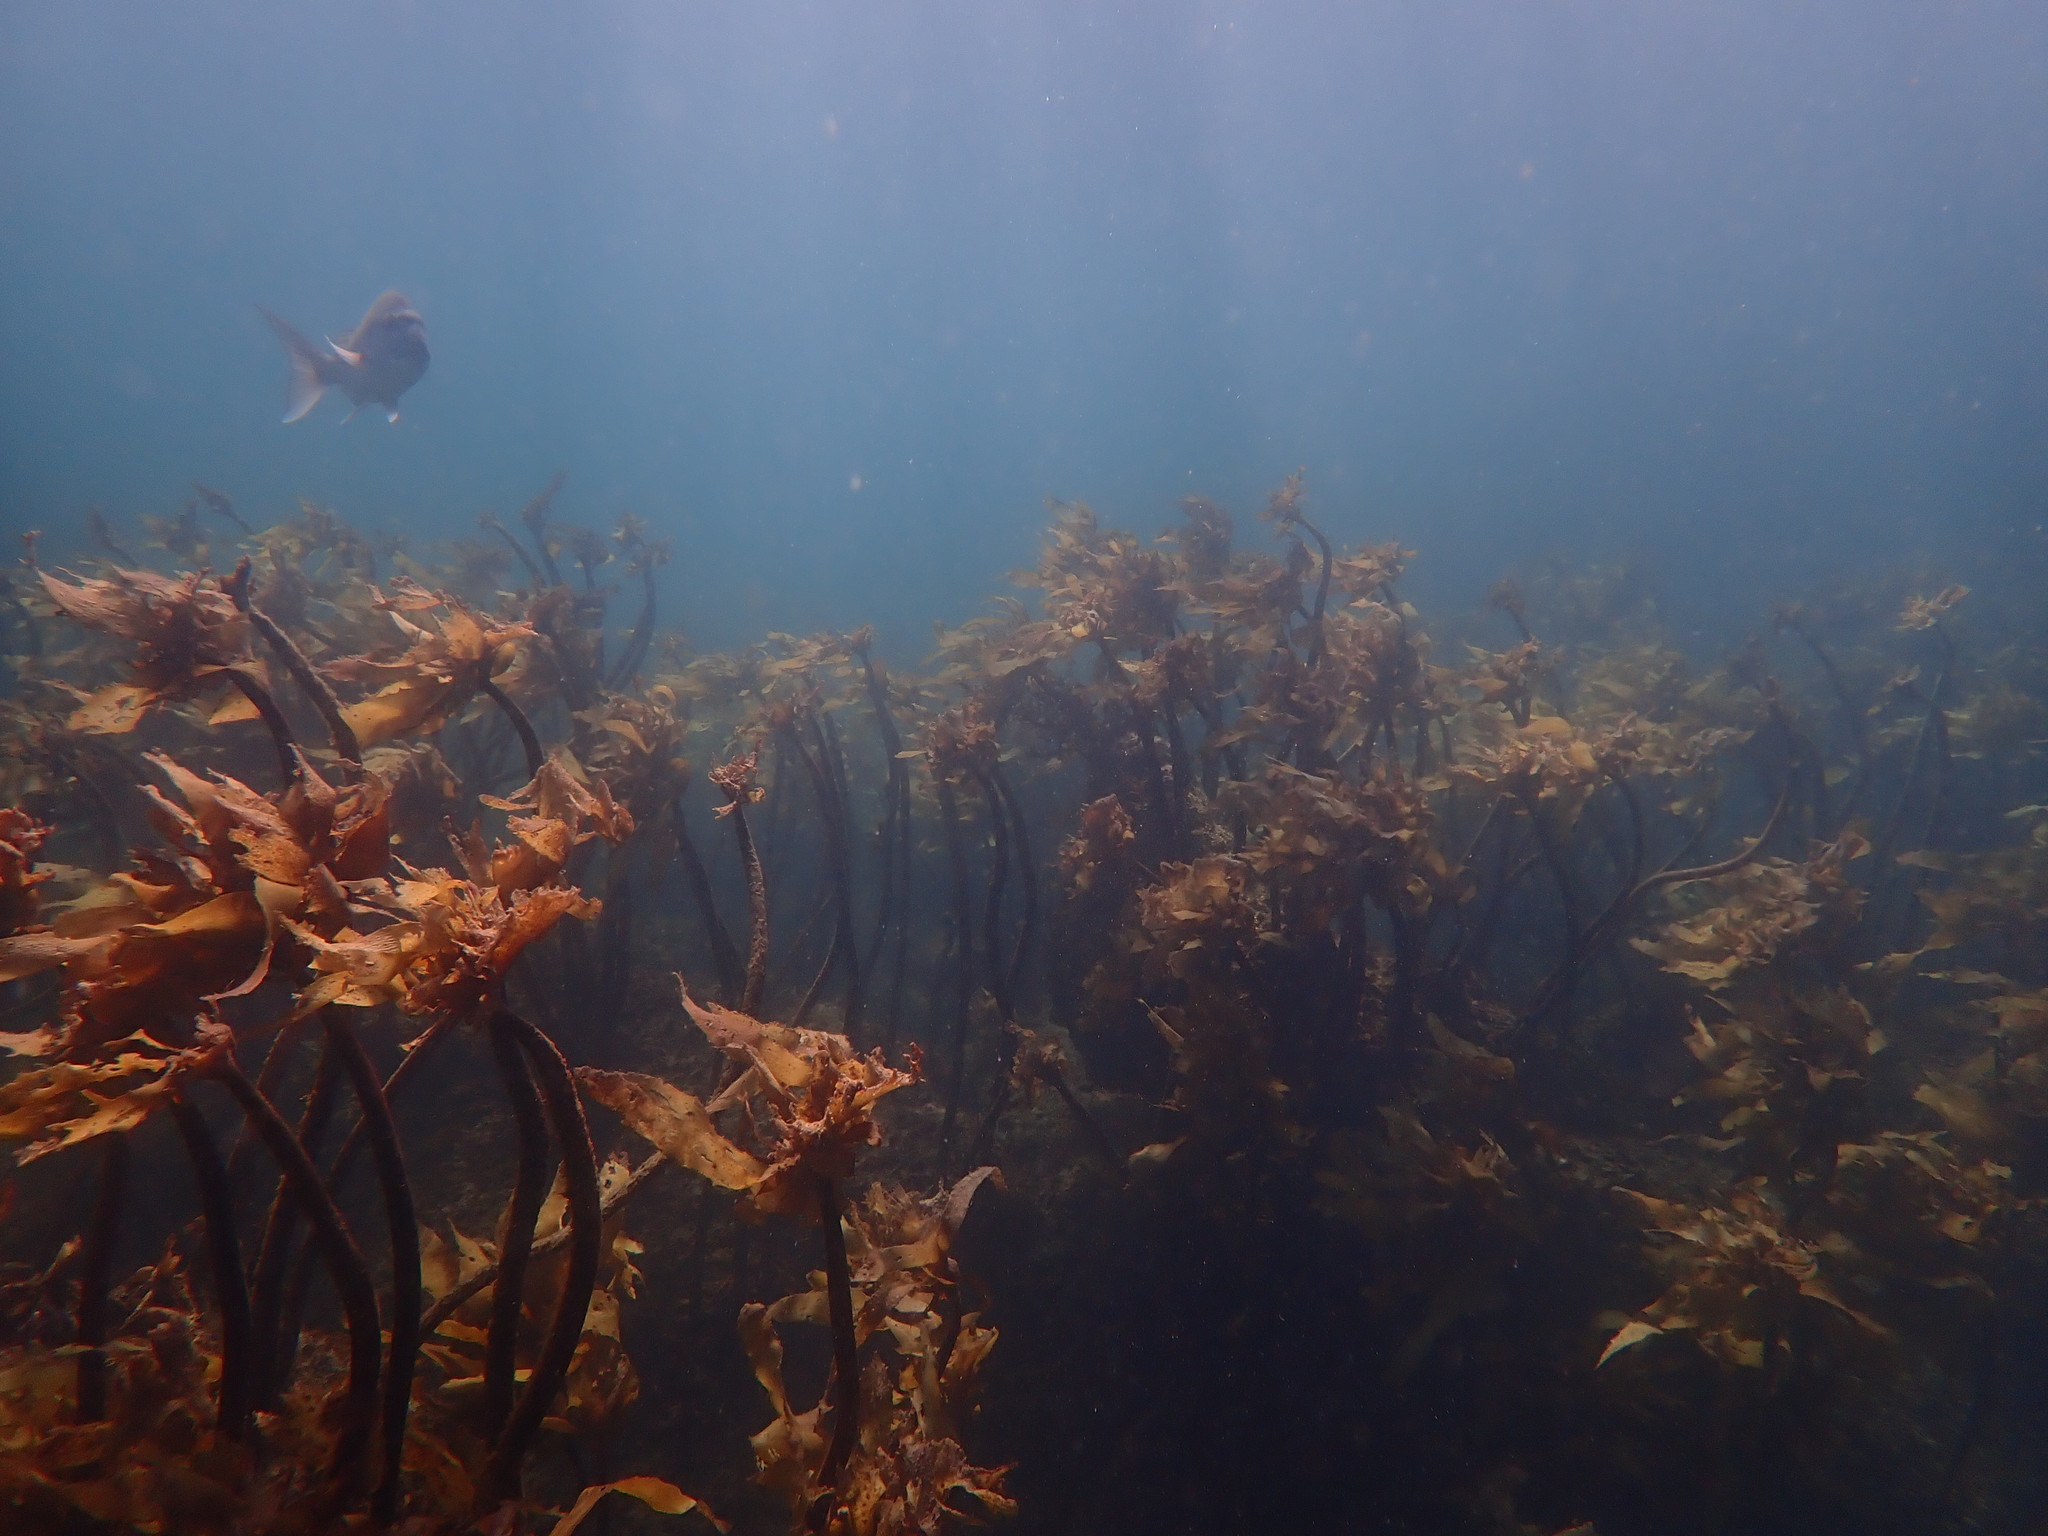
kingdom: Chromista
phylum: Ochrophyta
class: Phaeophyceae
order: Laminariales
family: Lessoniaceae
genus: Ecklonia
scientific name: Ecklonia radiata
